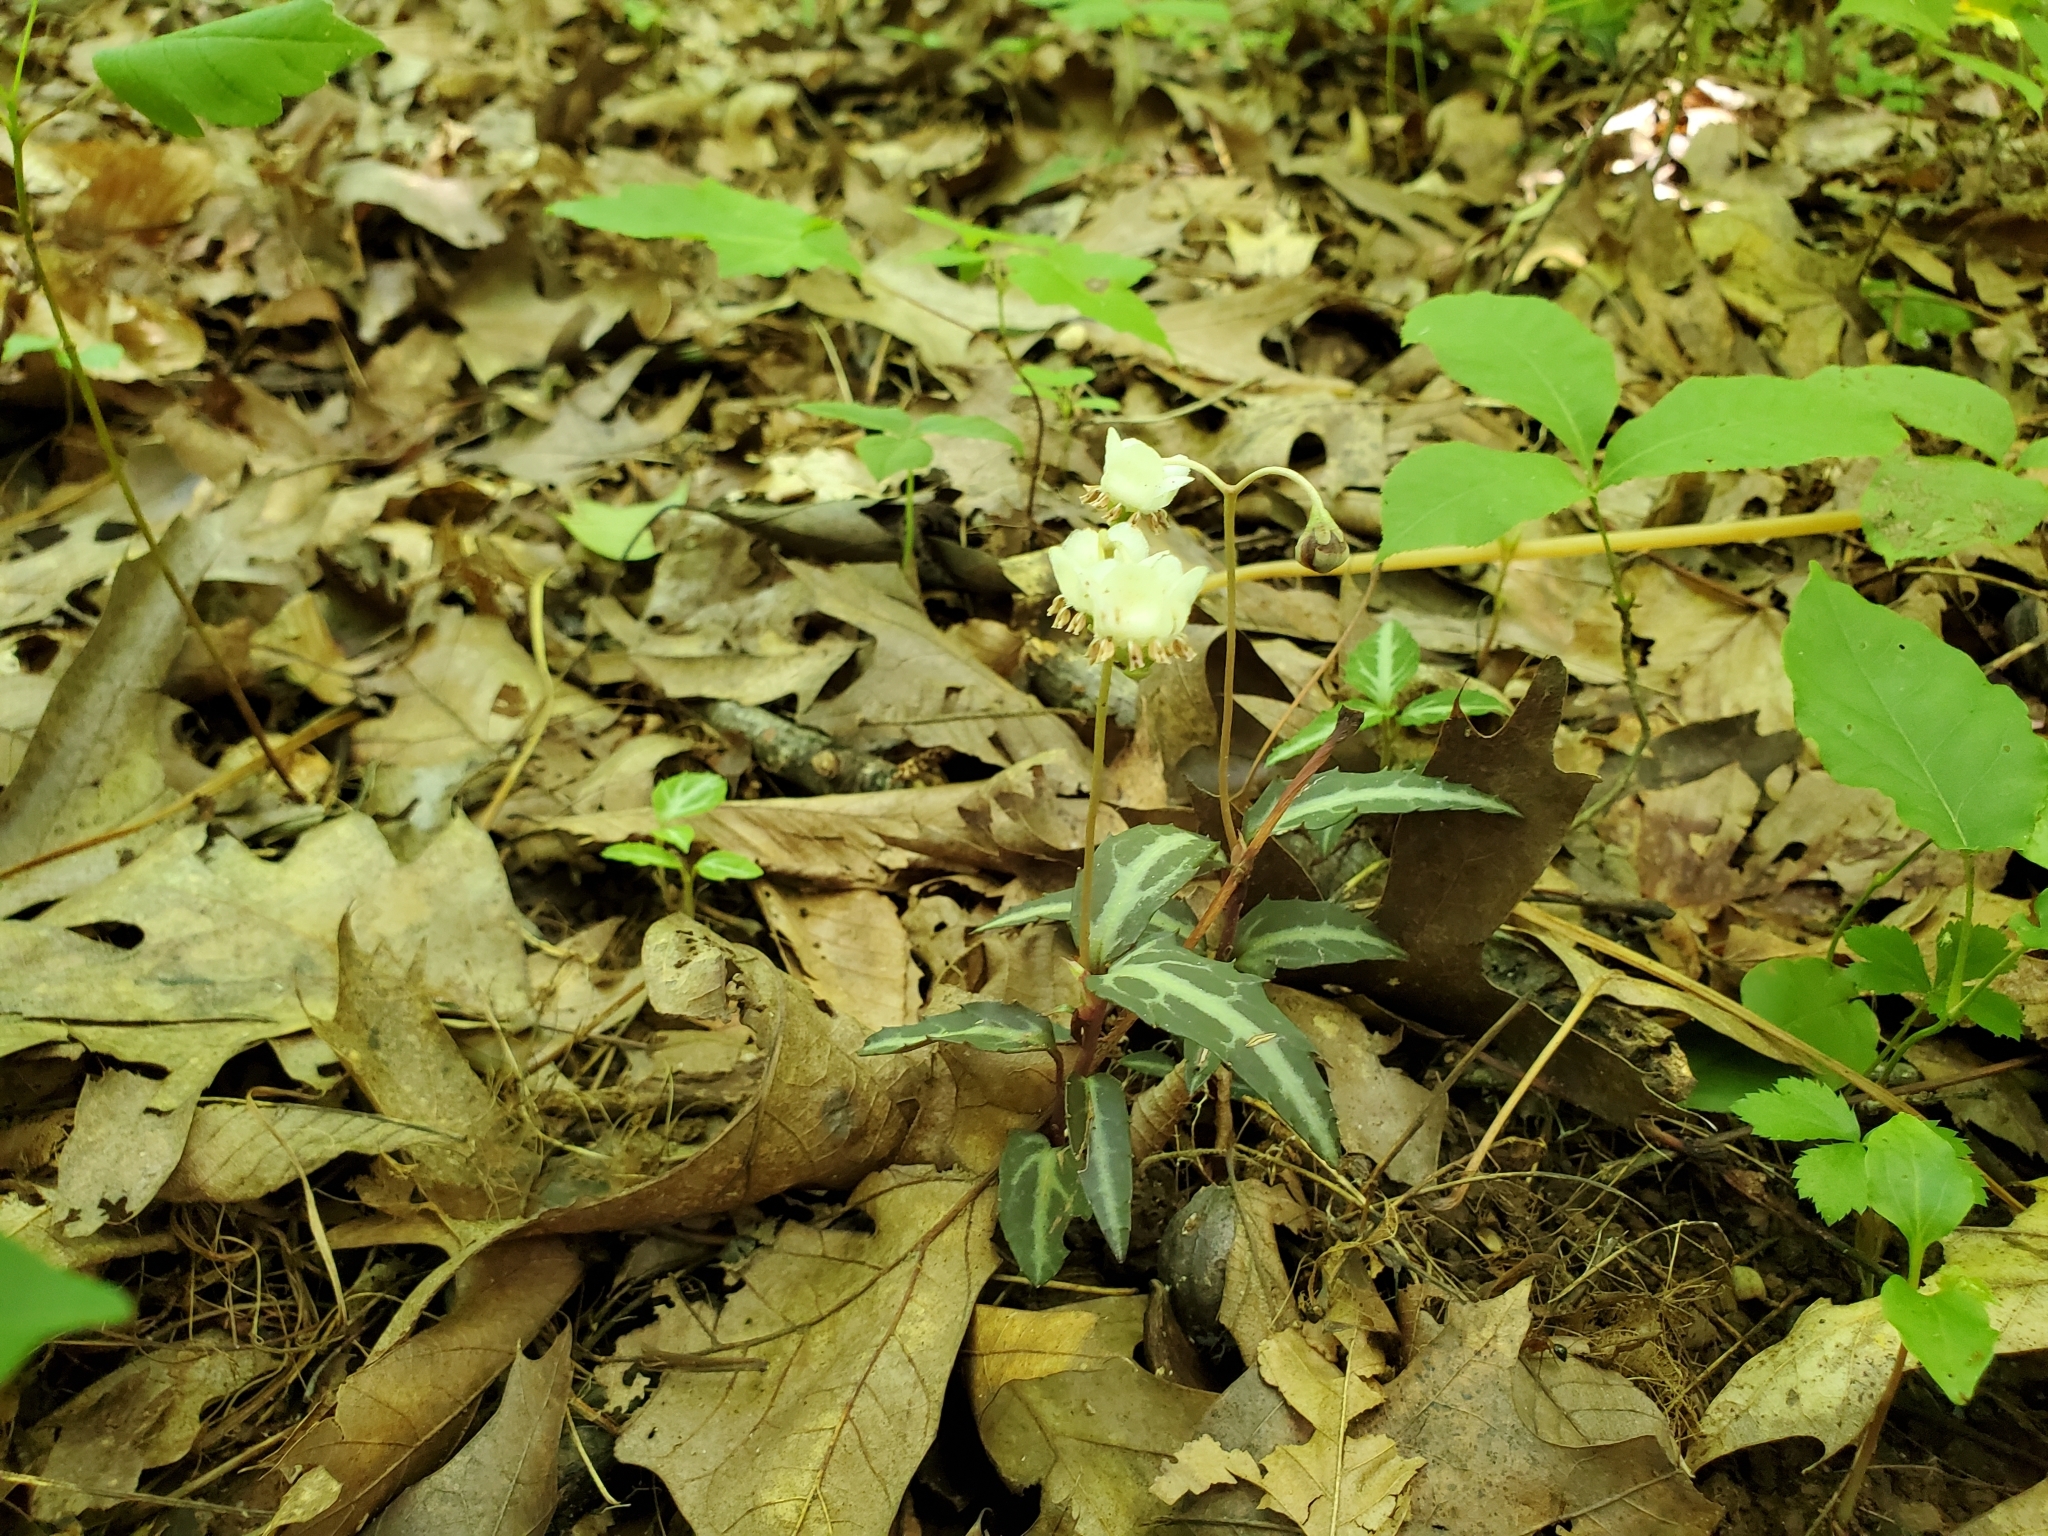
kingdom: Plantae
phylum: Tracheophyta
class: Magnoliopsida
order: Ericales
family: Ericaceae
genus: Chimaphila
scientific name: Chimaphila maculata
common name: Spotted pipsissewa
